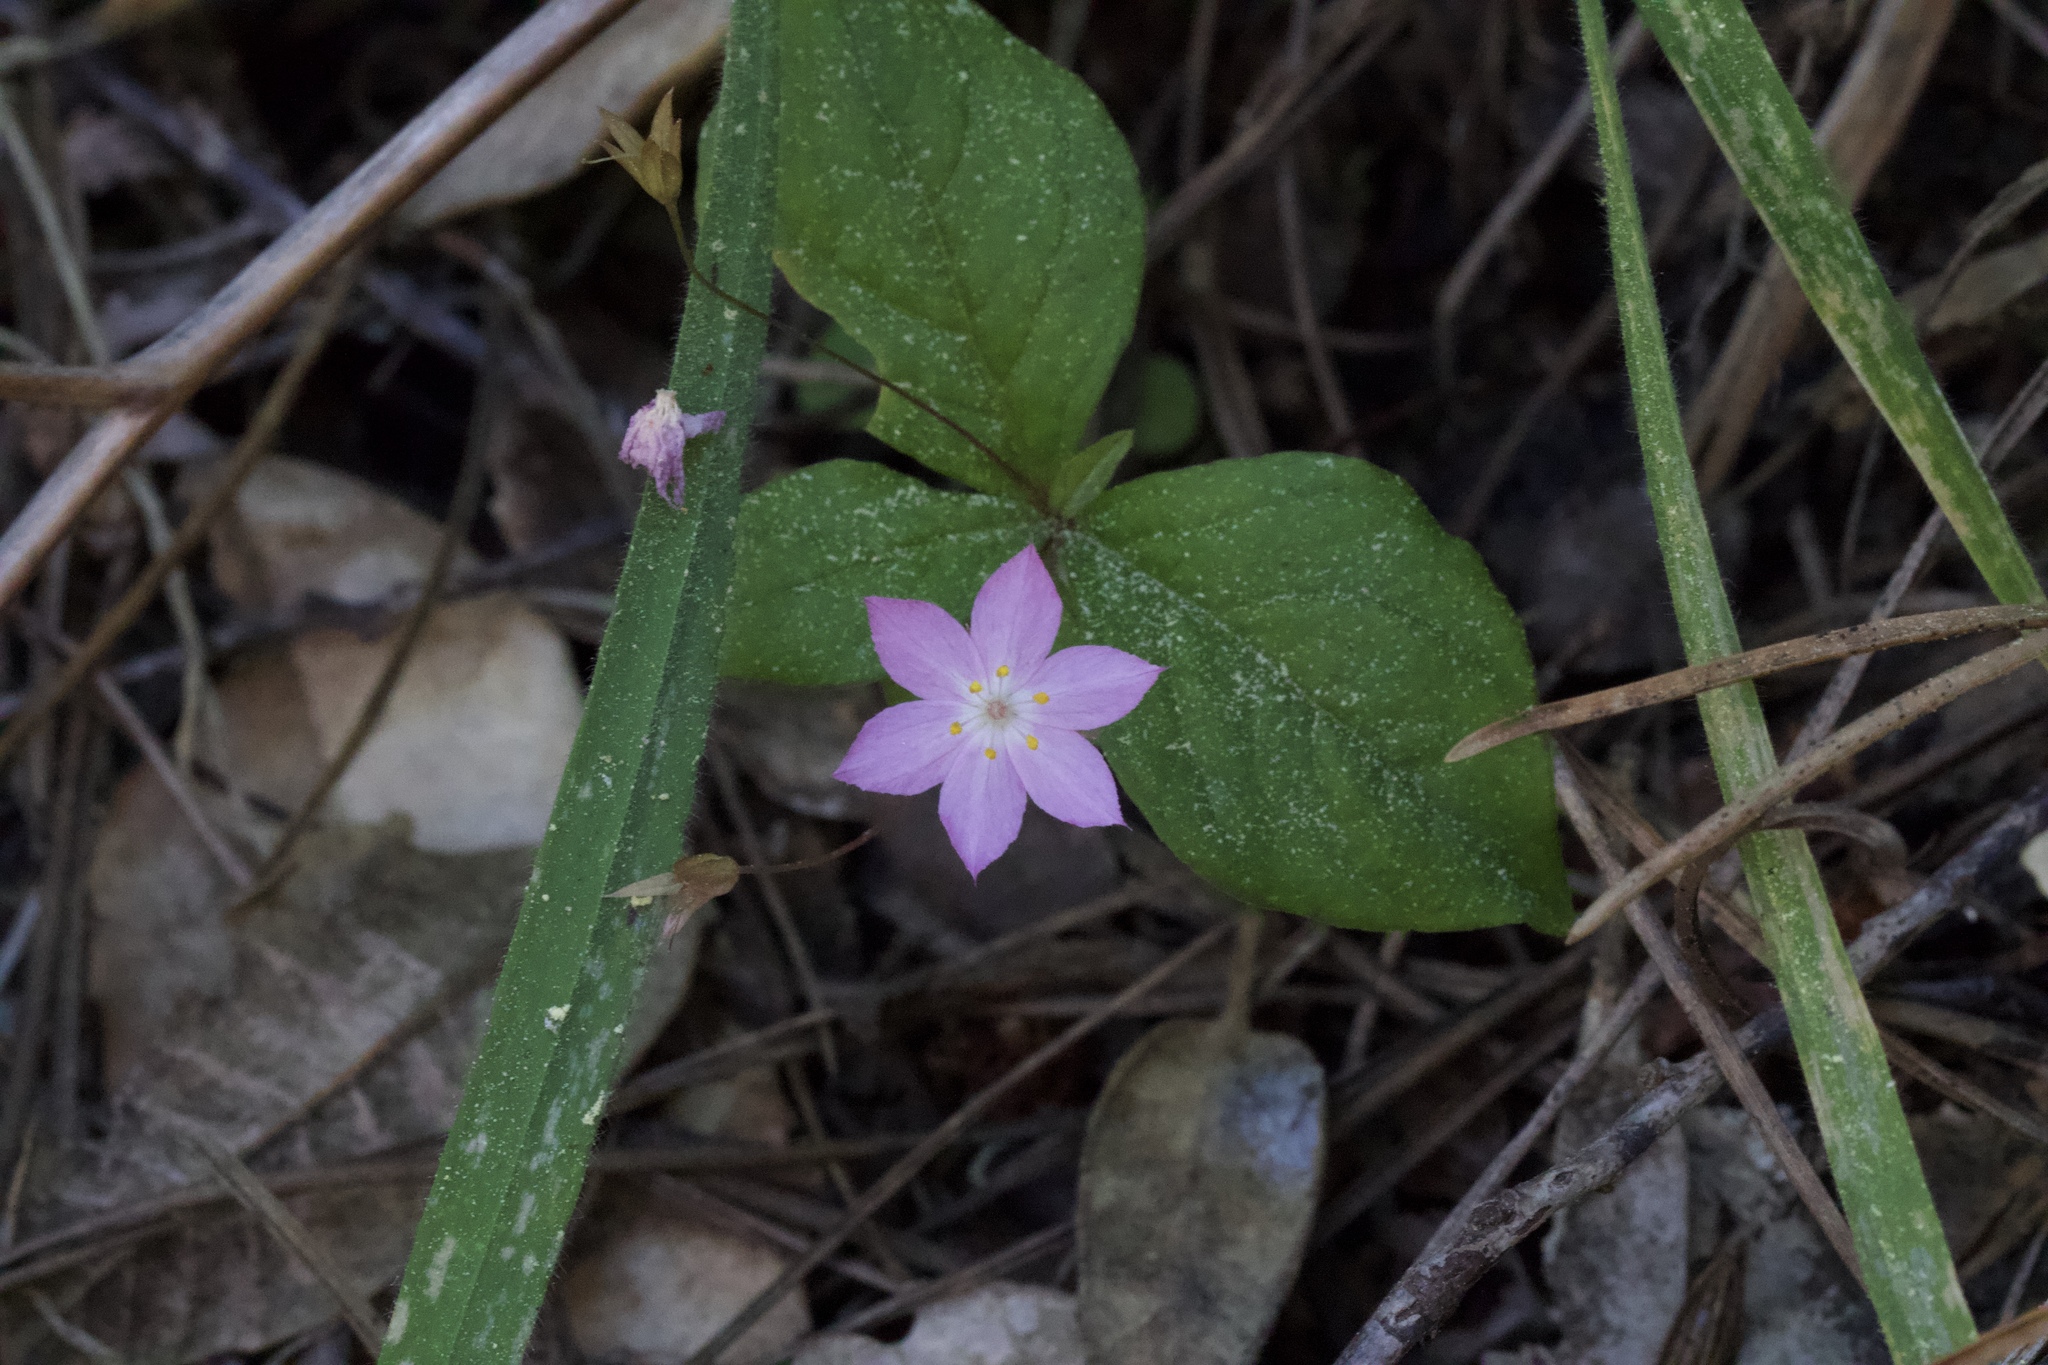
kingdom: Plantae
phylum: Tracheophyta
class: Magnoliopsida
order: Ericales
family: Primulaceae
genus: Lysimachia
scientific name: Lysimachia latifolia
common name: Pacific starflower
